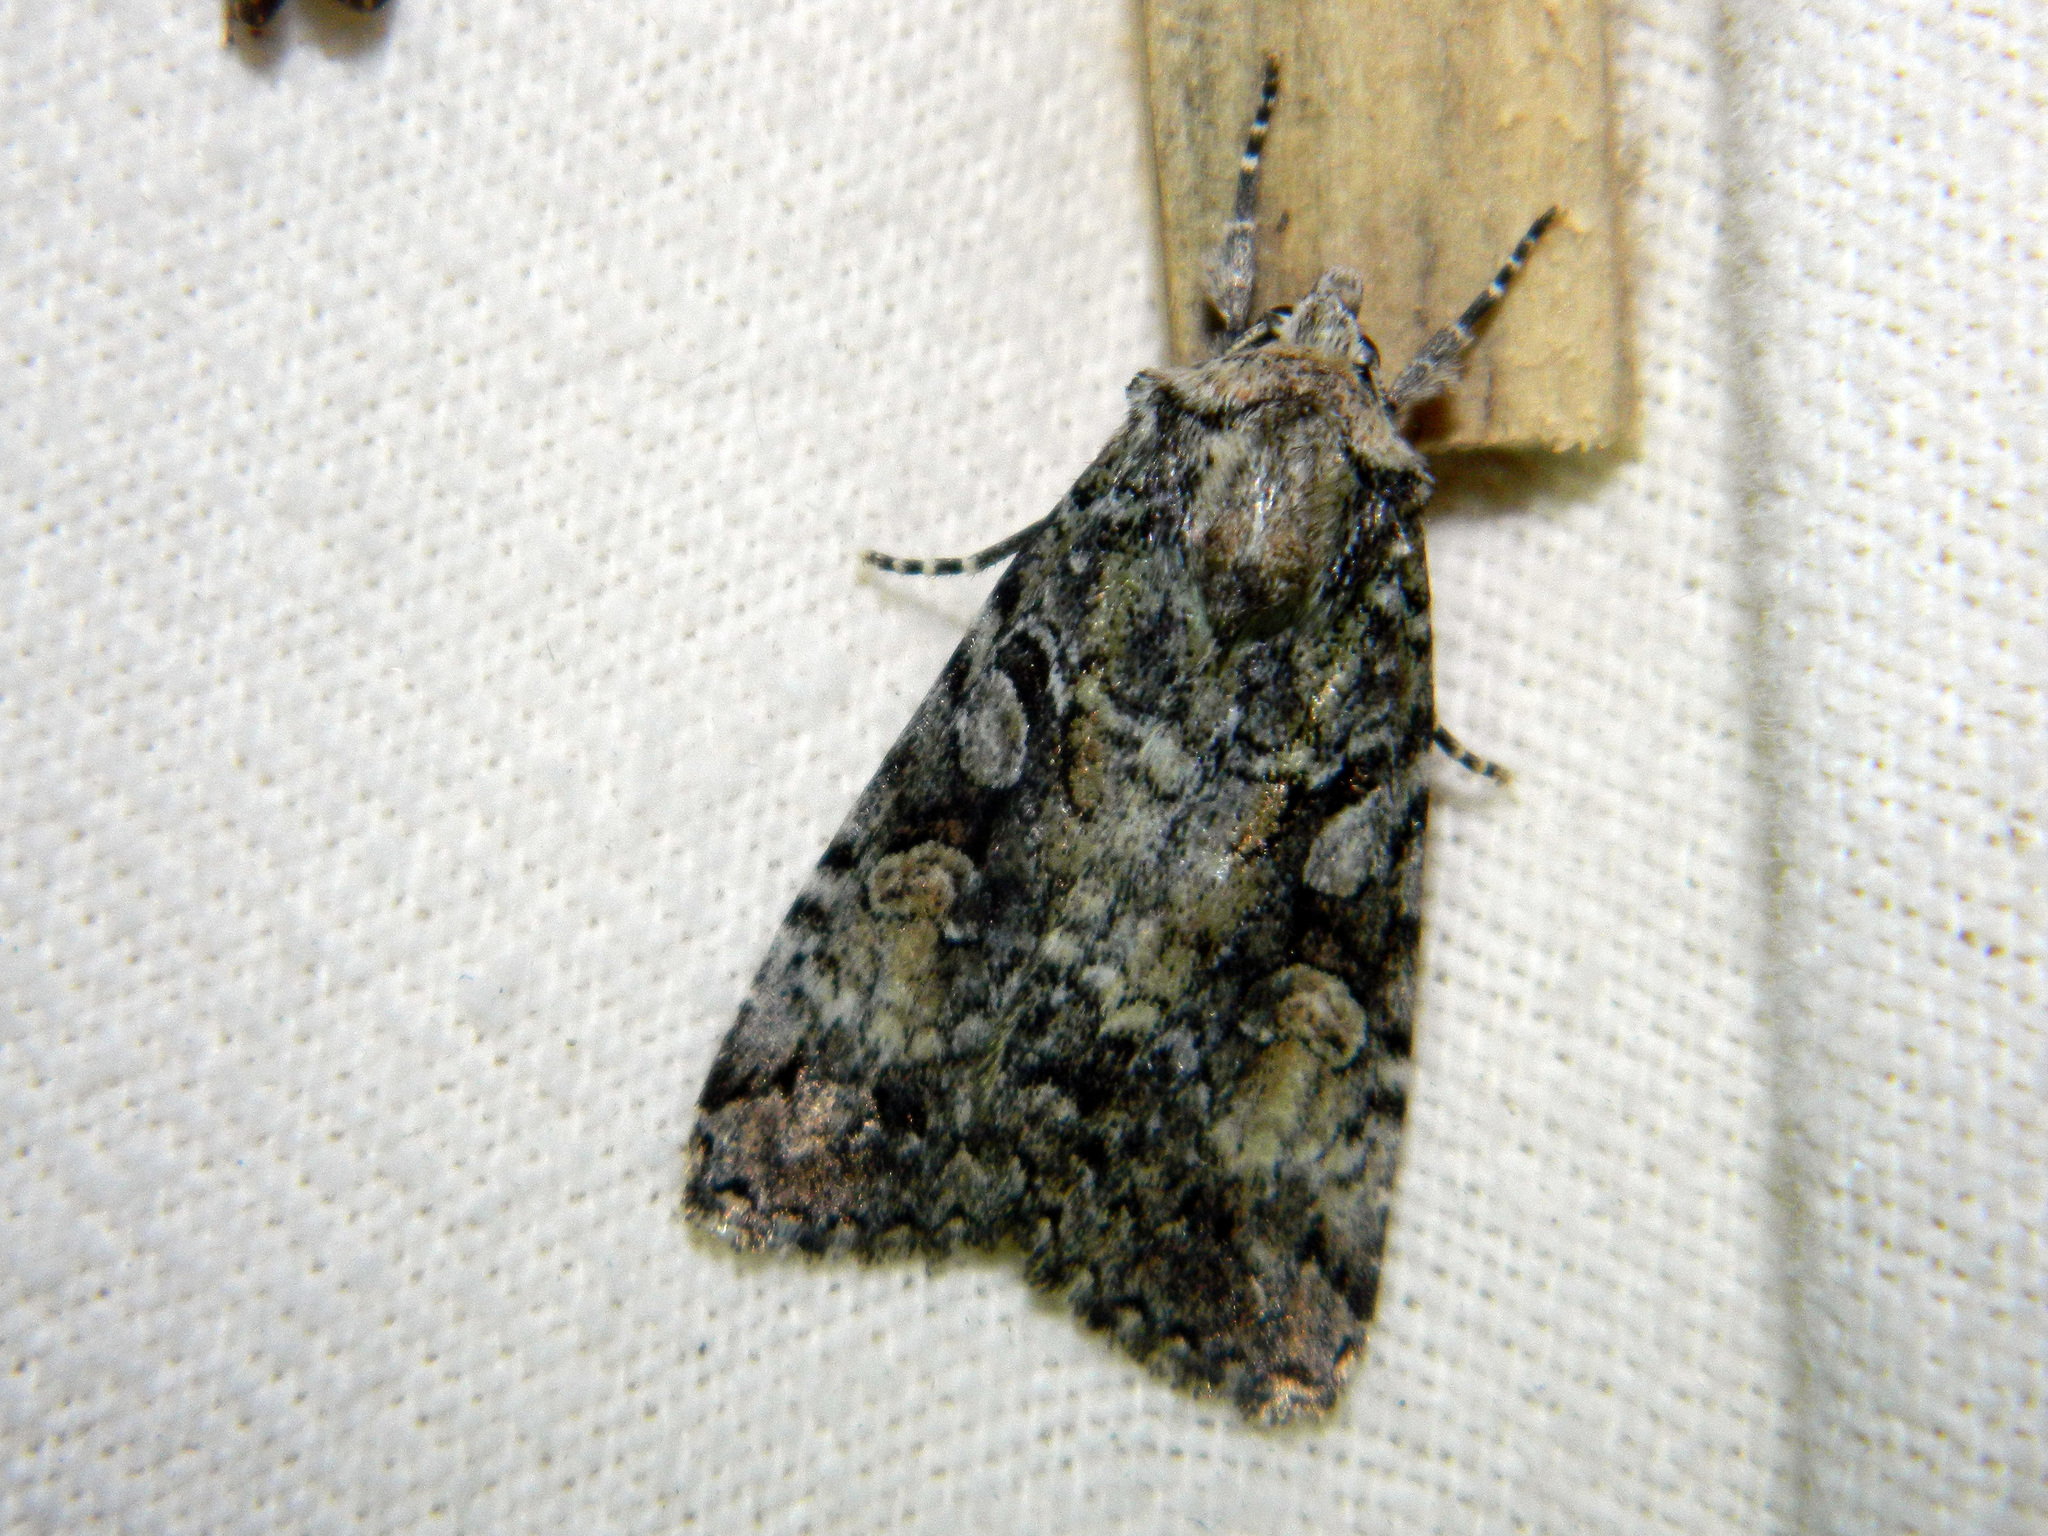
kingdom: Animalia
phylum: Arthropoda
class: Insecta
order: Lepidoptera
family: Noctuidae
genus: Anaplectoides
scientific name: Anaplectoides pressus
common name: Dappled dart
